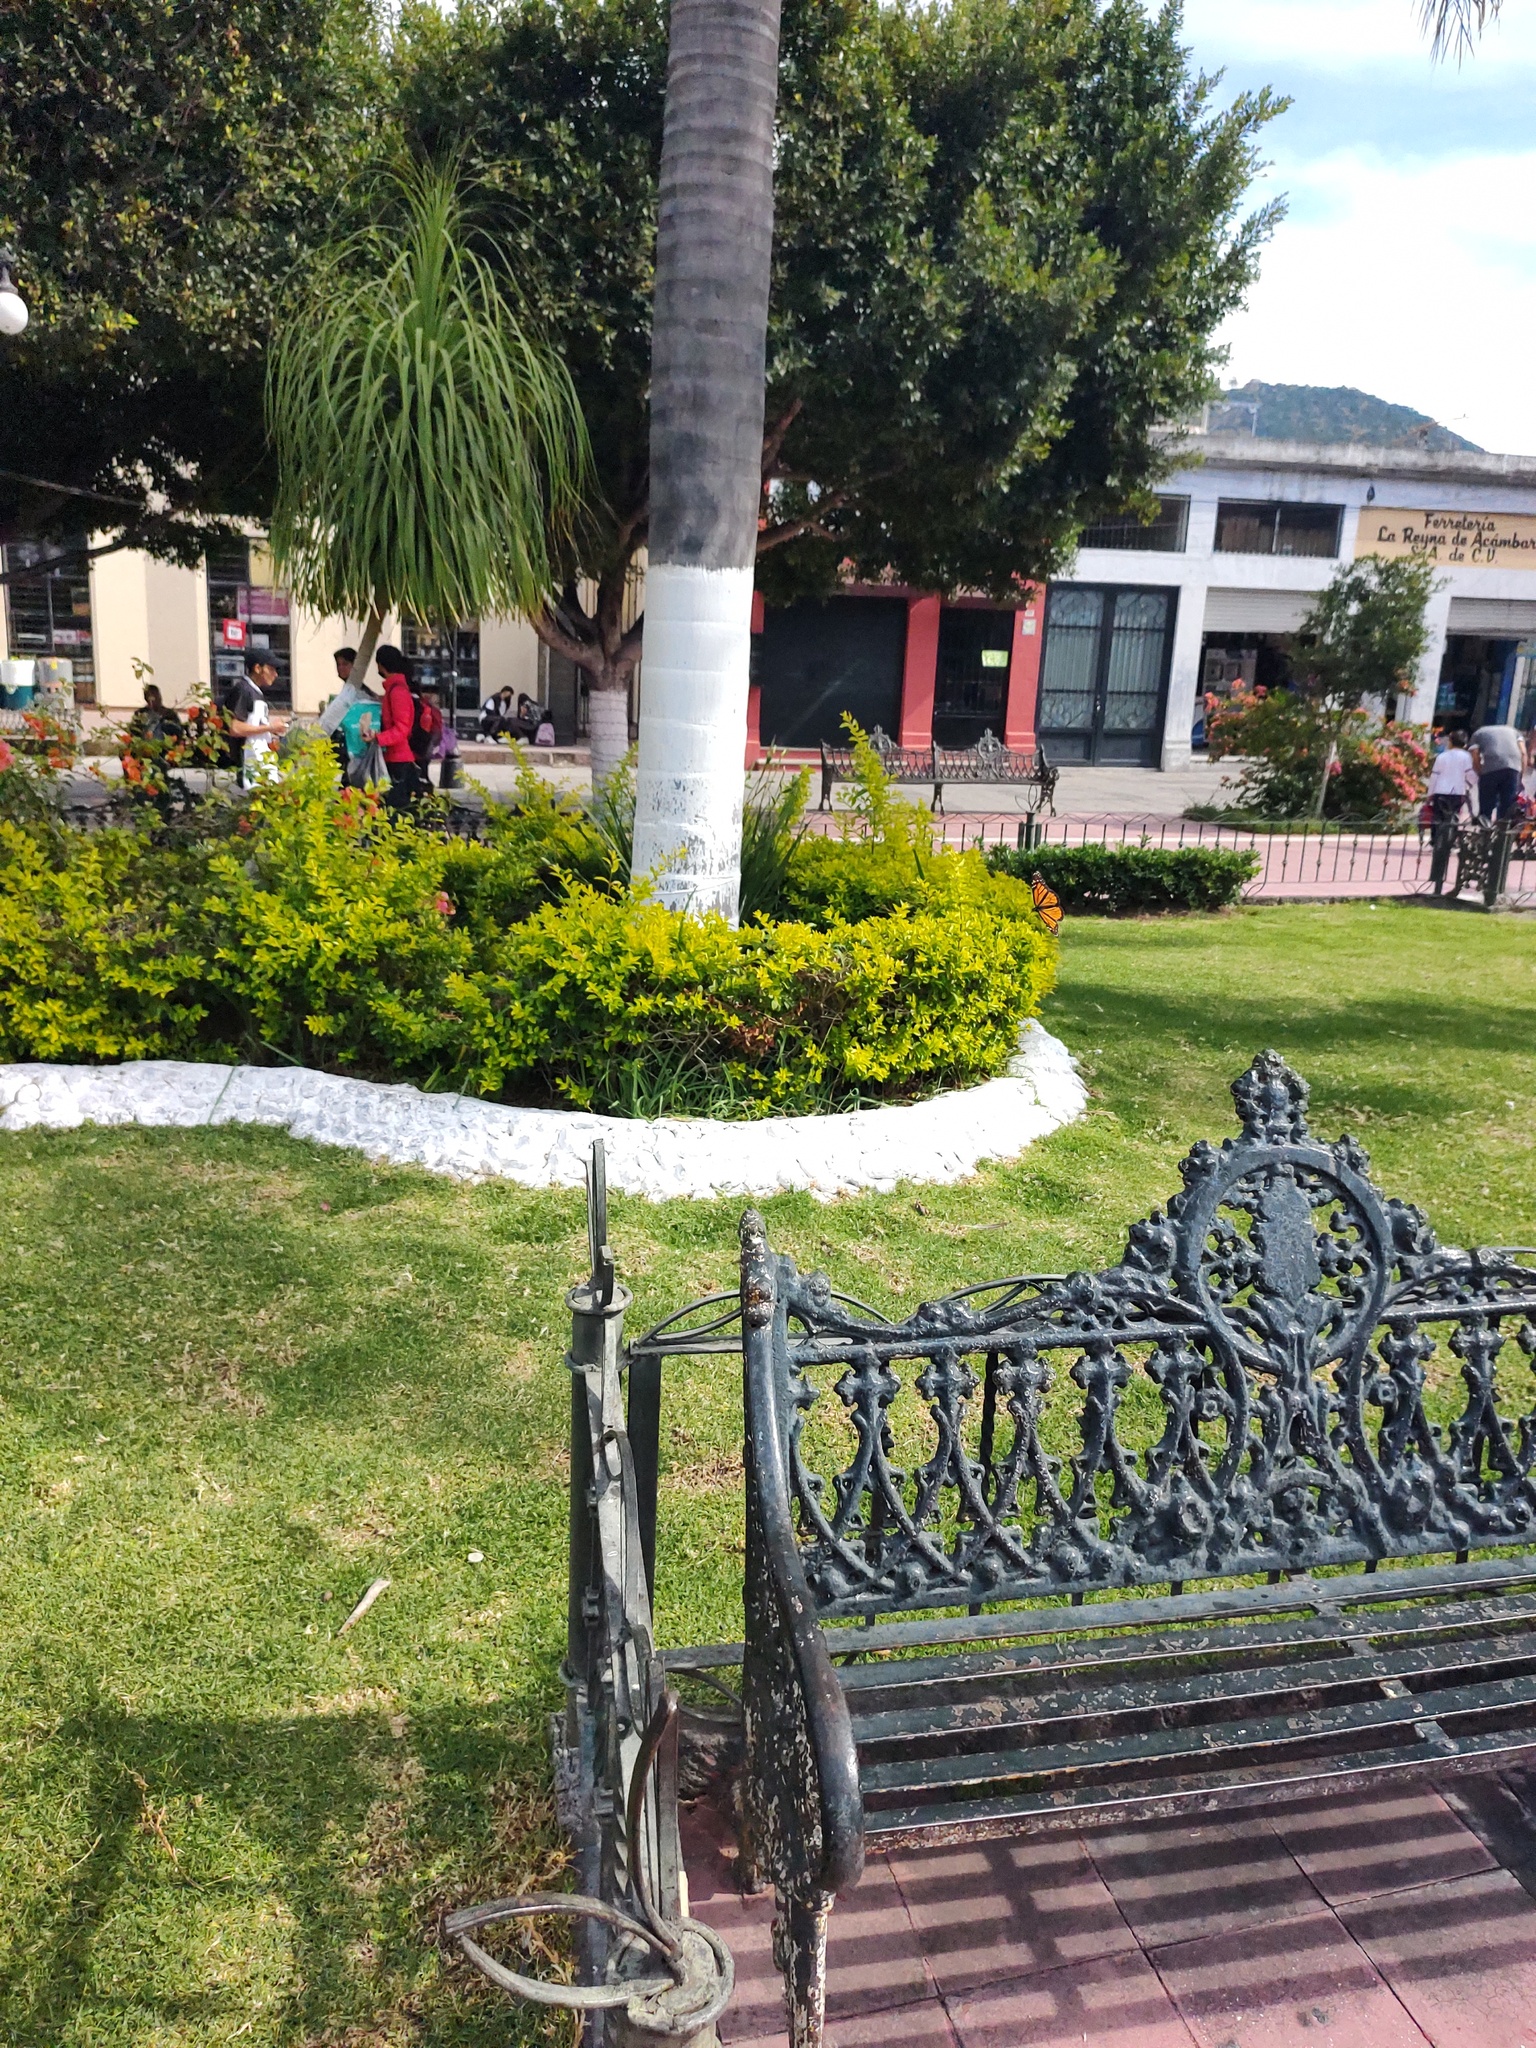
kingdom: Animalia
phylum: Arthropoda
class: Insecta
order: Lepidoptera
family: Nymphalidae
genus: Danaus
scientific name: Danaus plexippus
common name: Monarch
